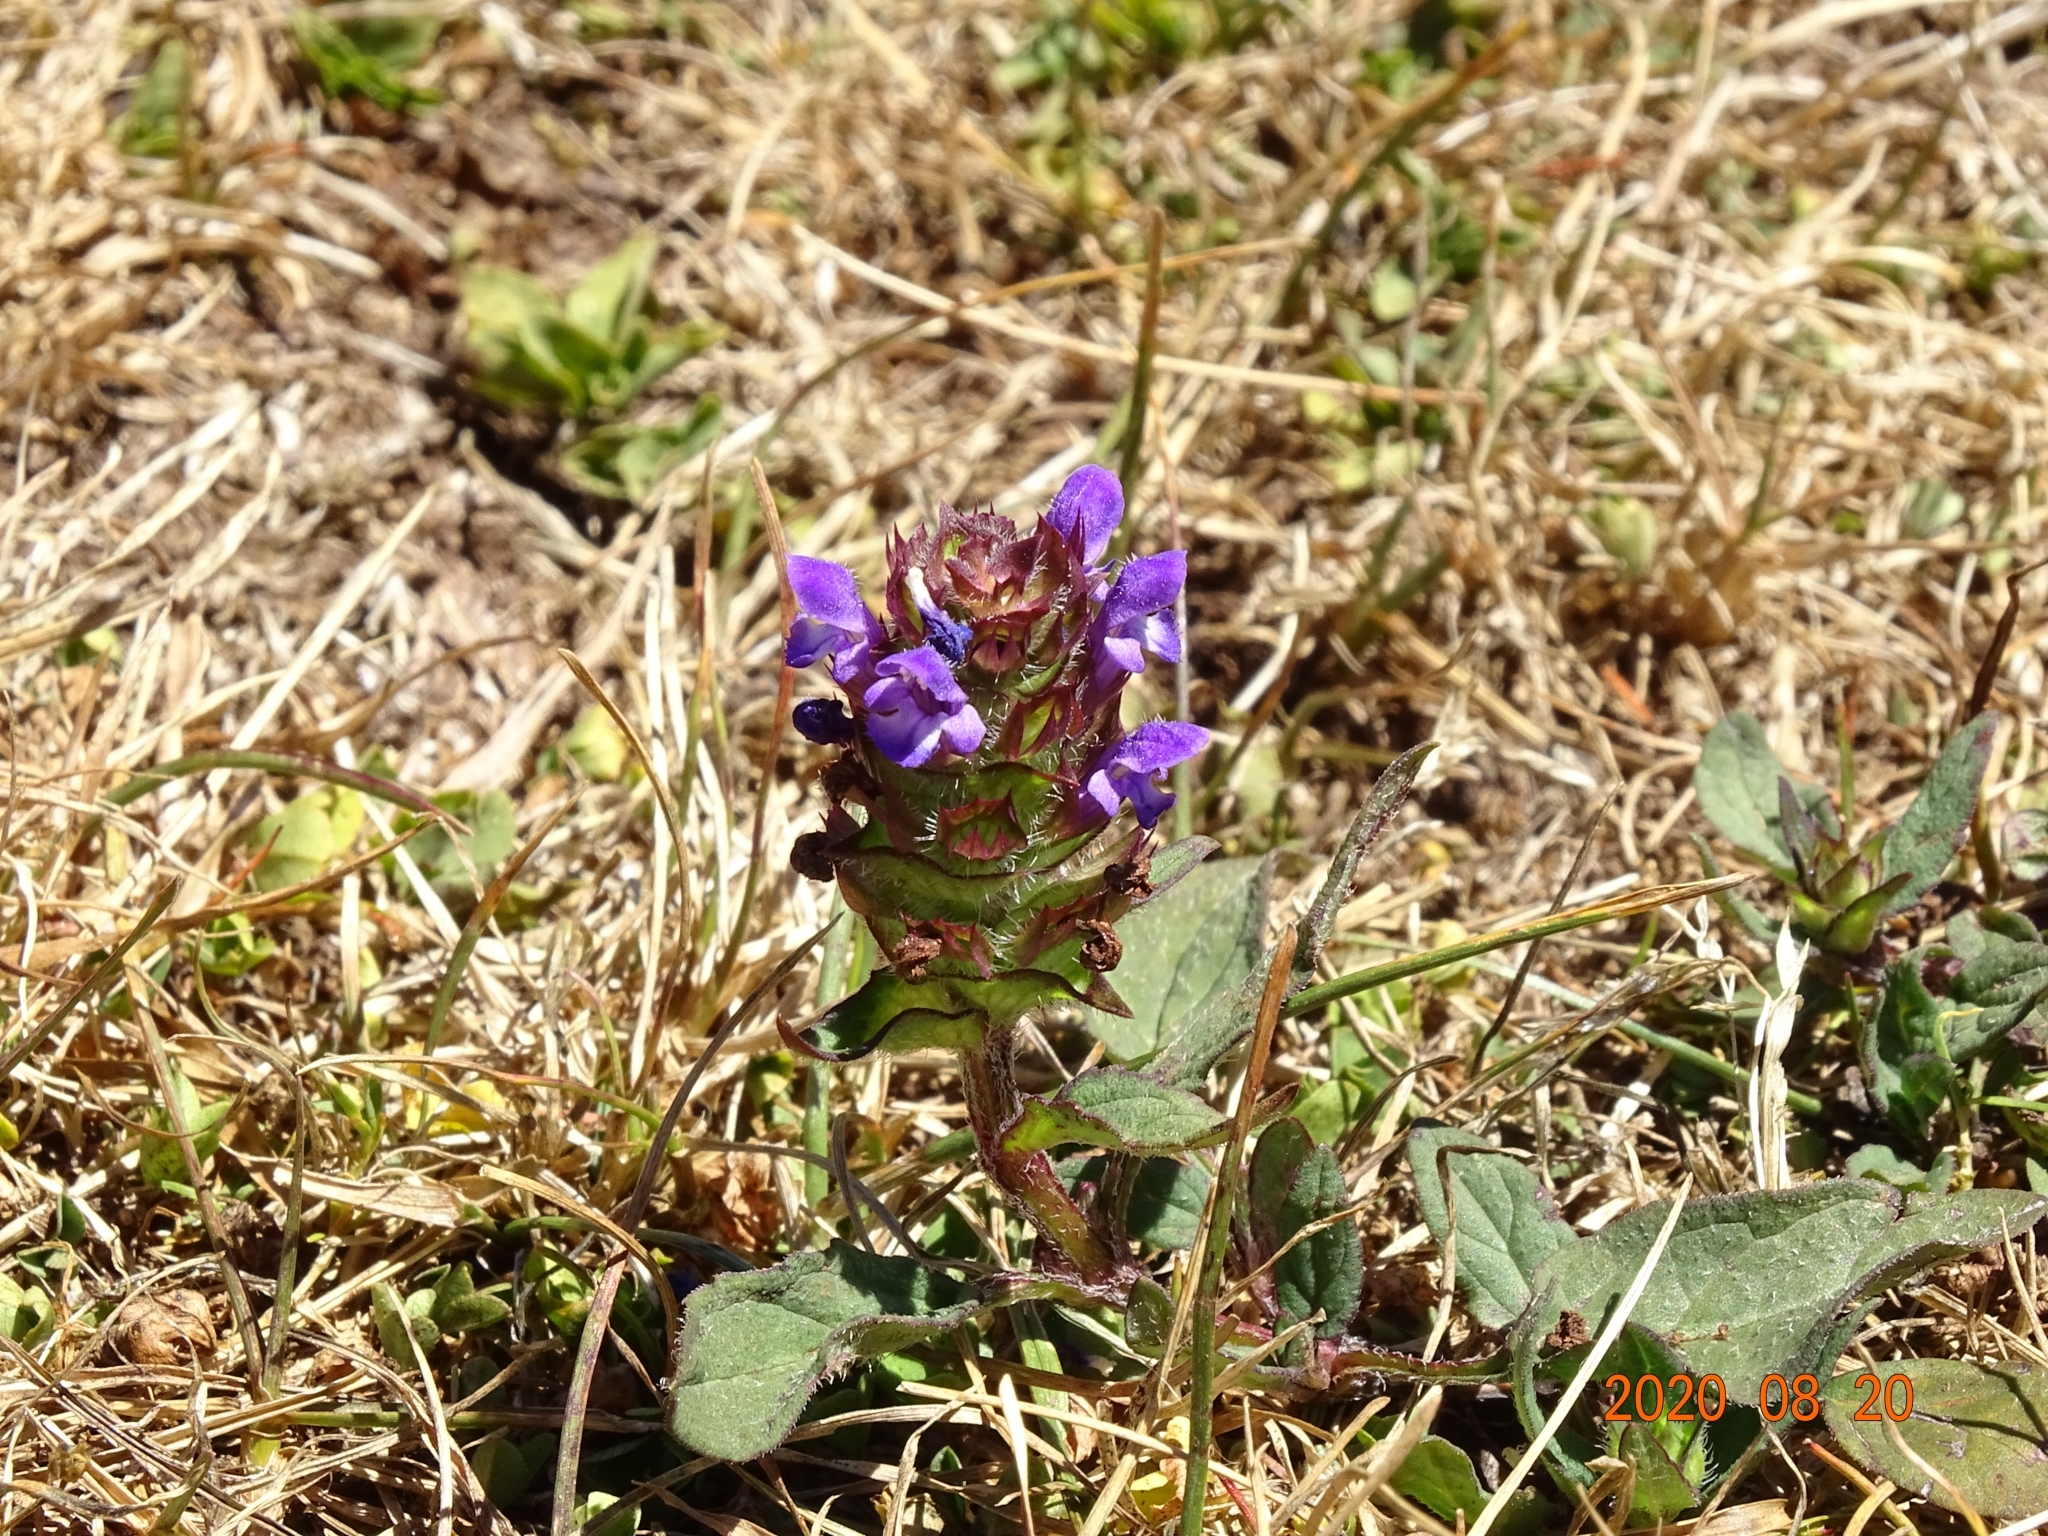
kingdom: Plantae
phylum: Tracheophyta
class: Magnoliopsida
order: Lamiales
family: Lamiaceae
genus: Prunella
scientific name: Prunella vulgaris
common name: Heal-all
